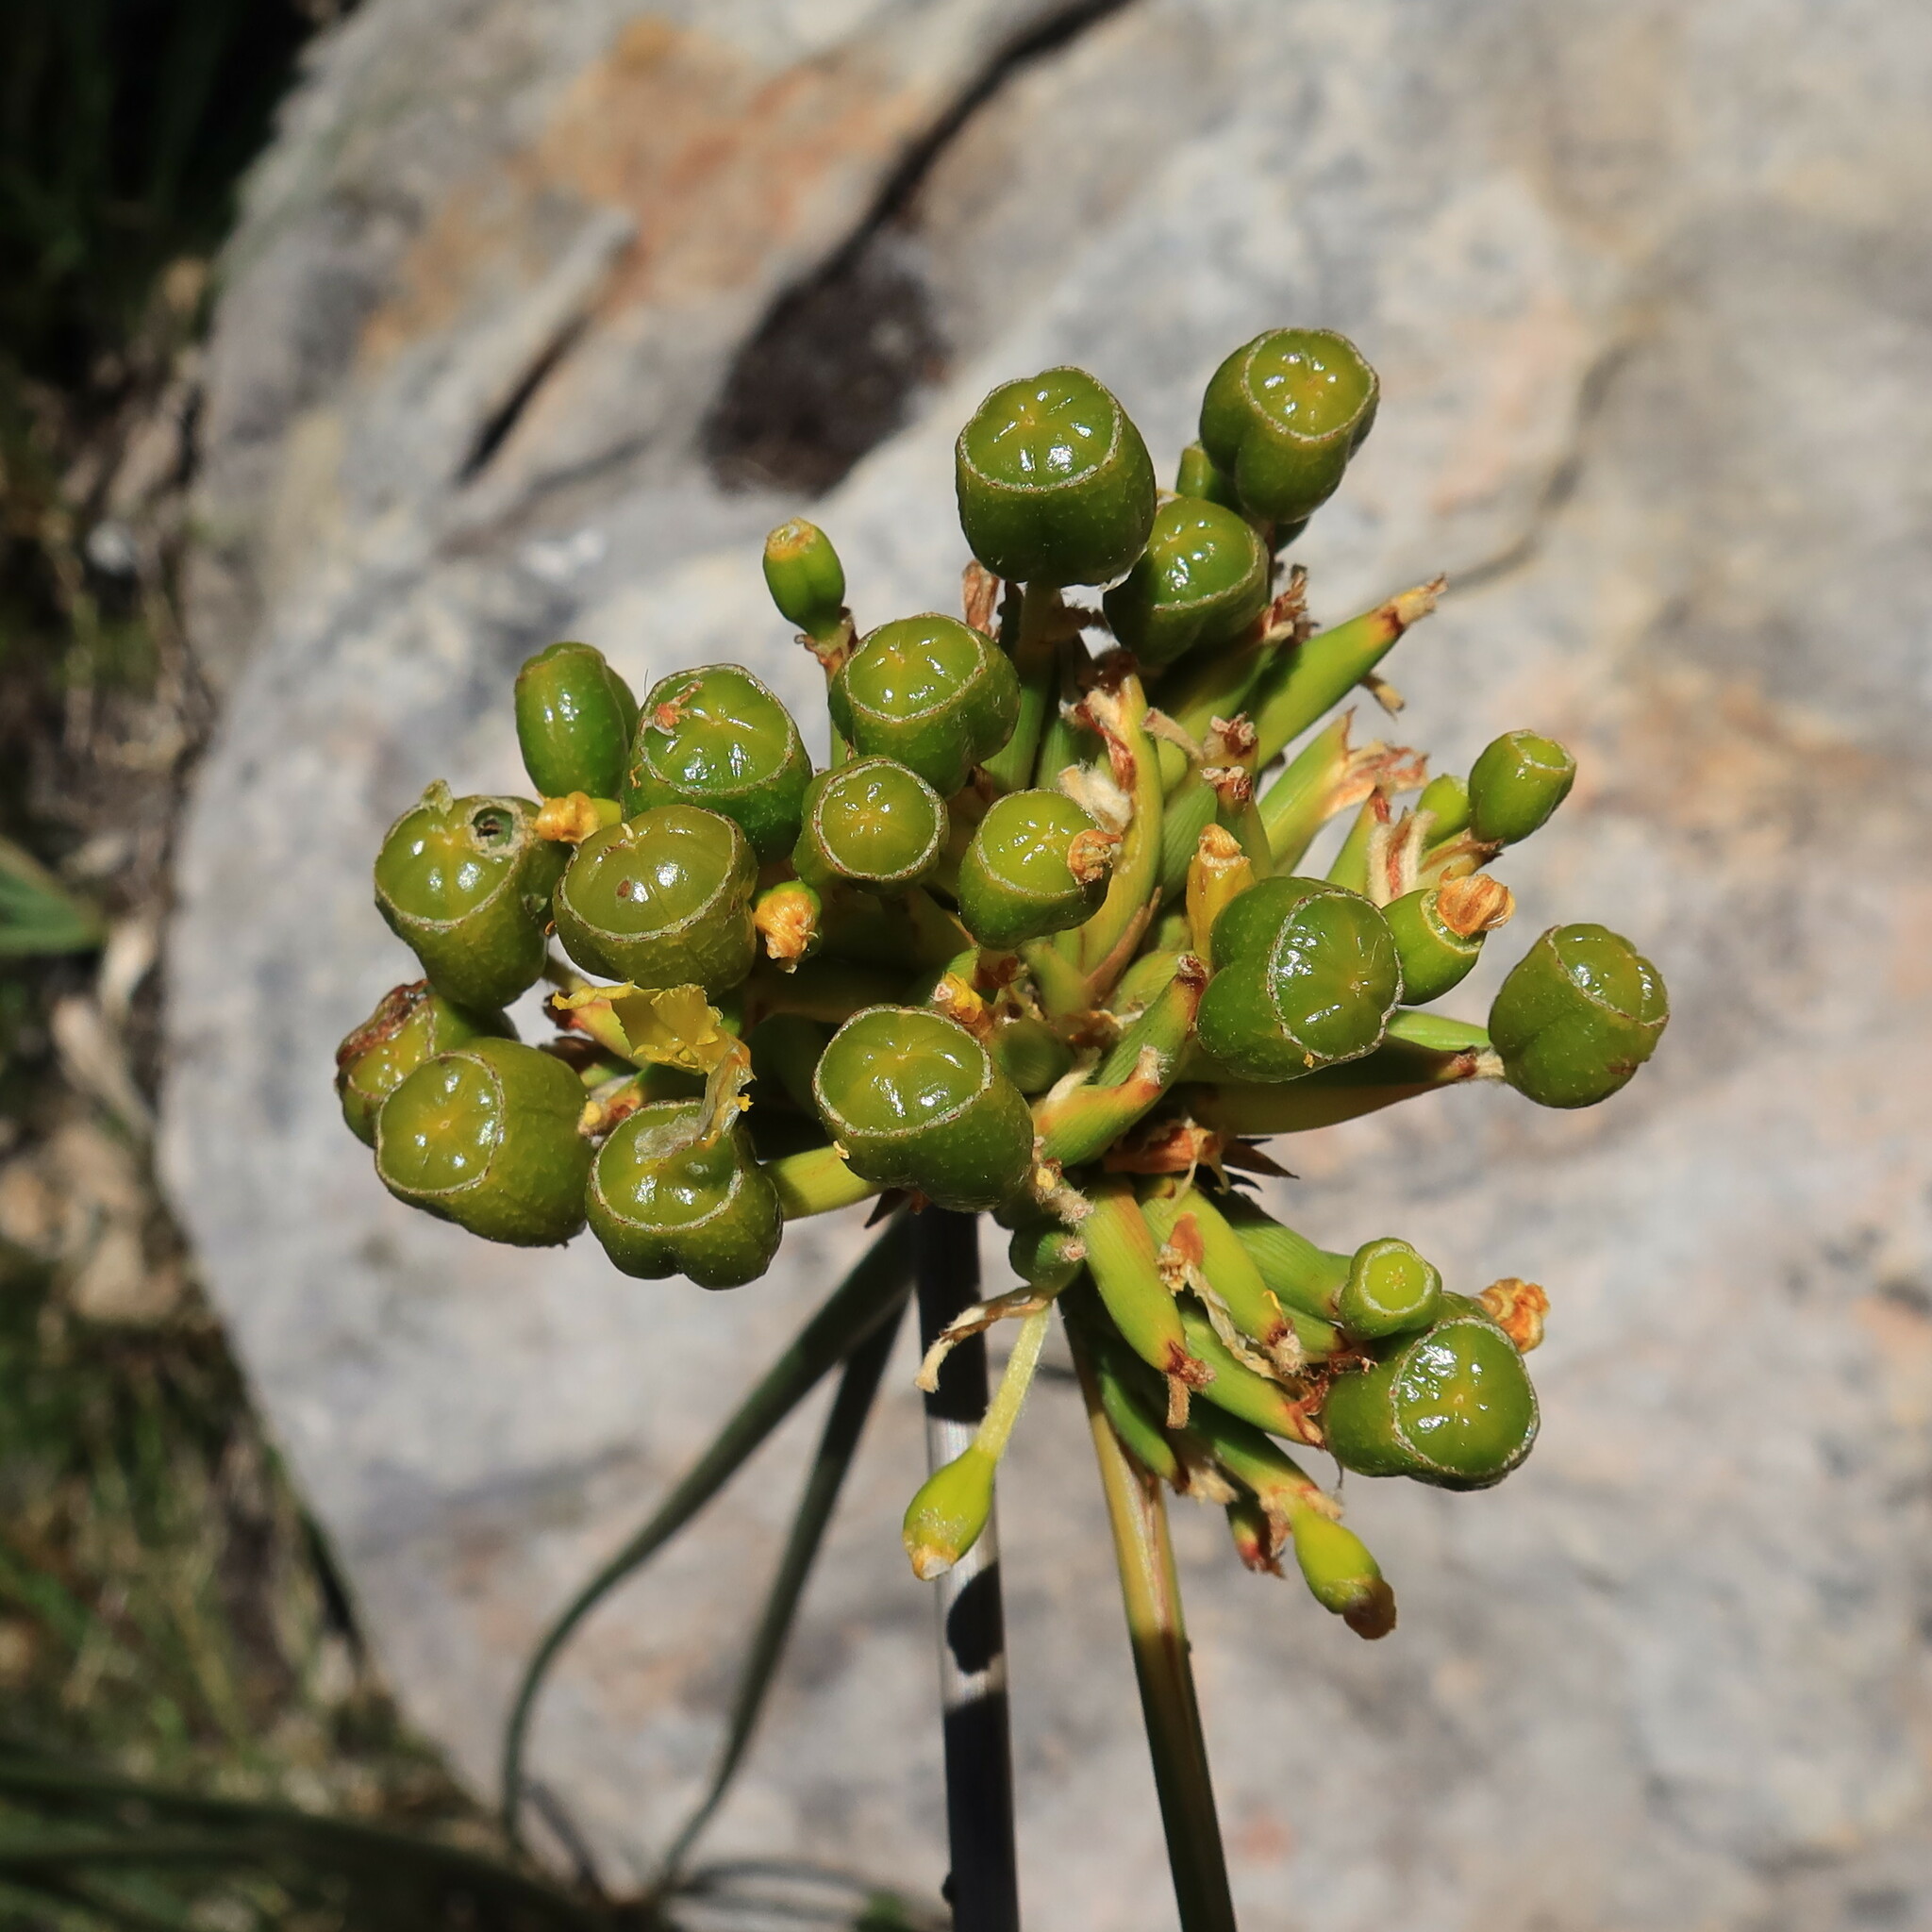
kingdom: Plantae
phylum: Tracheophyta
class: Liliopsida
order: Asparagales
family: Iridaceae
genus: Bobartia
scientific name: Bobartia indica
